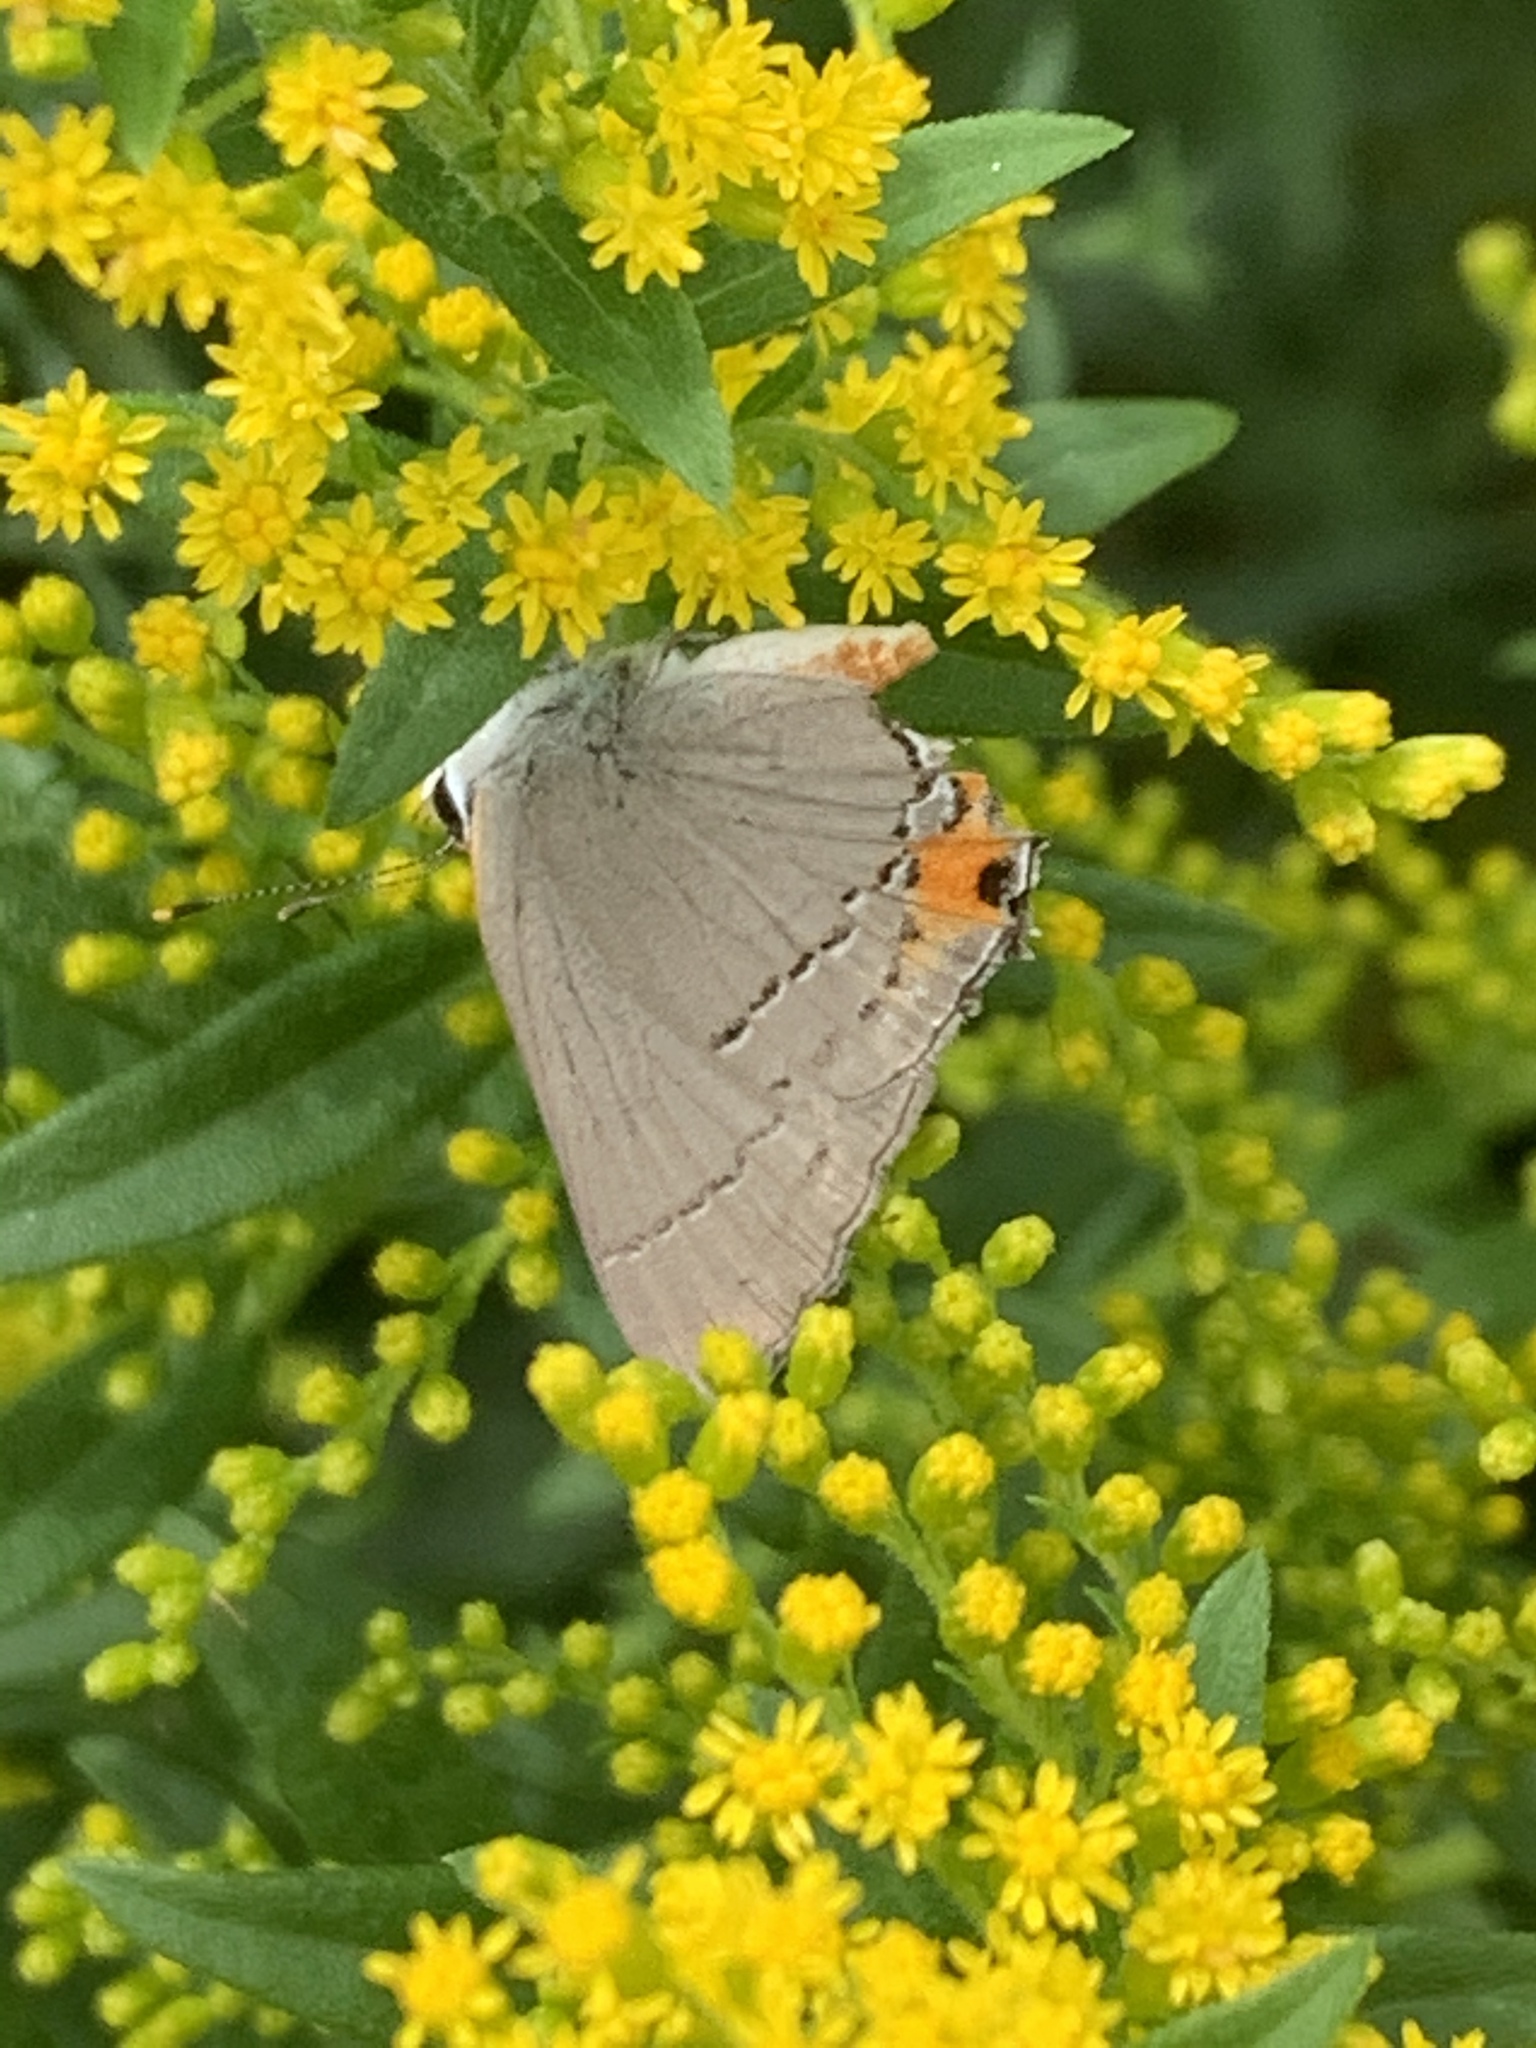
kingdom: Animalia
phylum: Arthropoda
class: Insecta
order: Lepidoptera
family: Lycaenidae
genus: Strymon
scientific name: Strymon melinus
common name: Gray hairstreak
